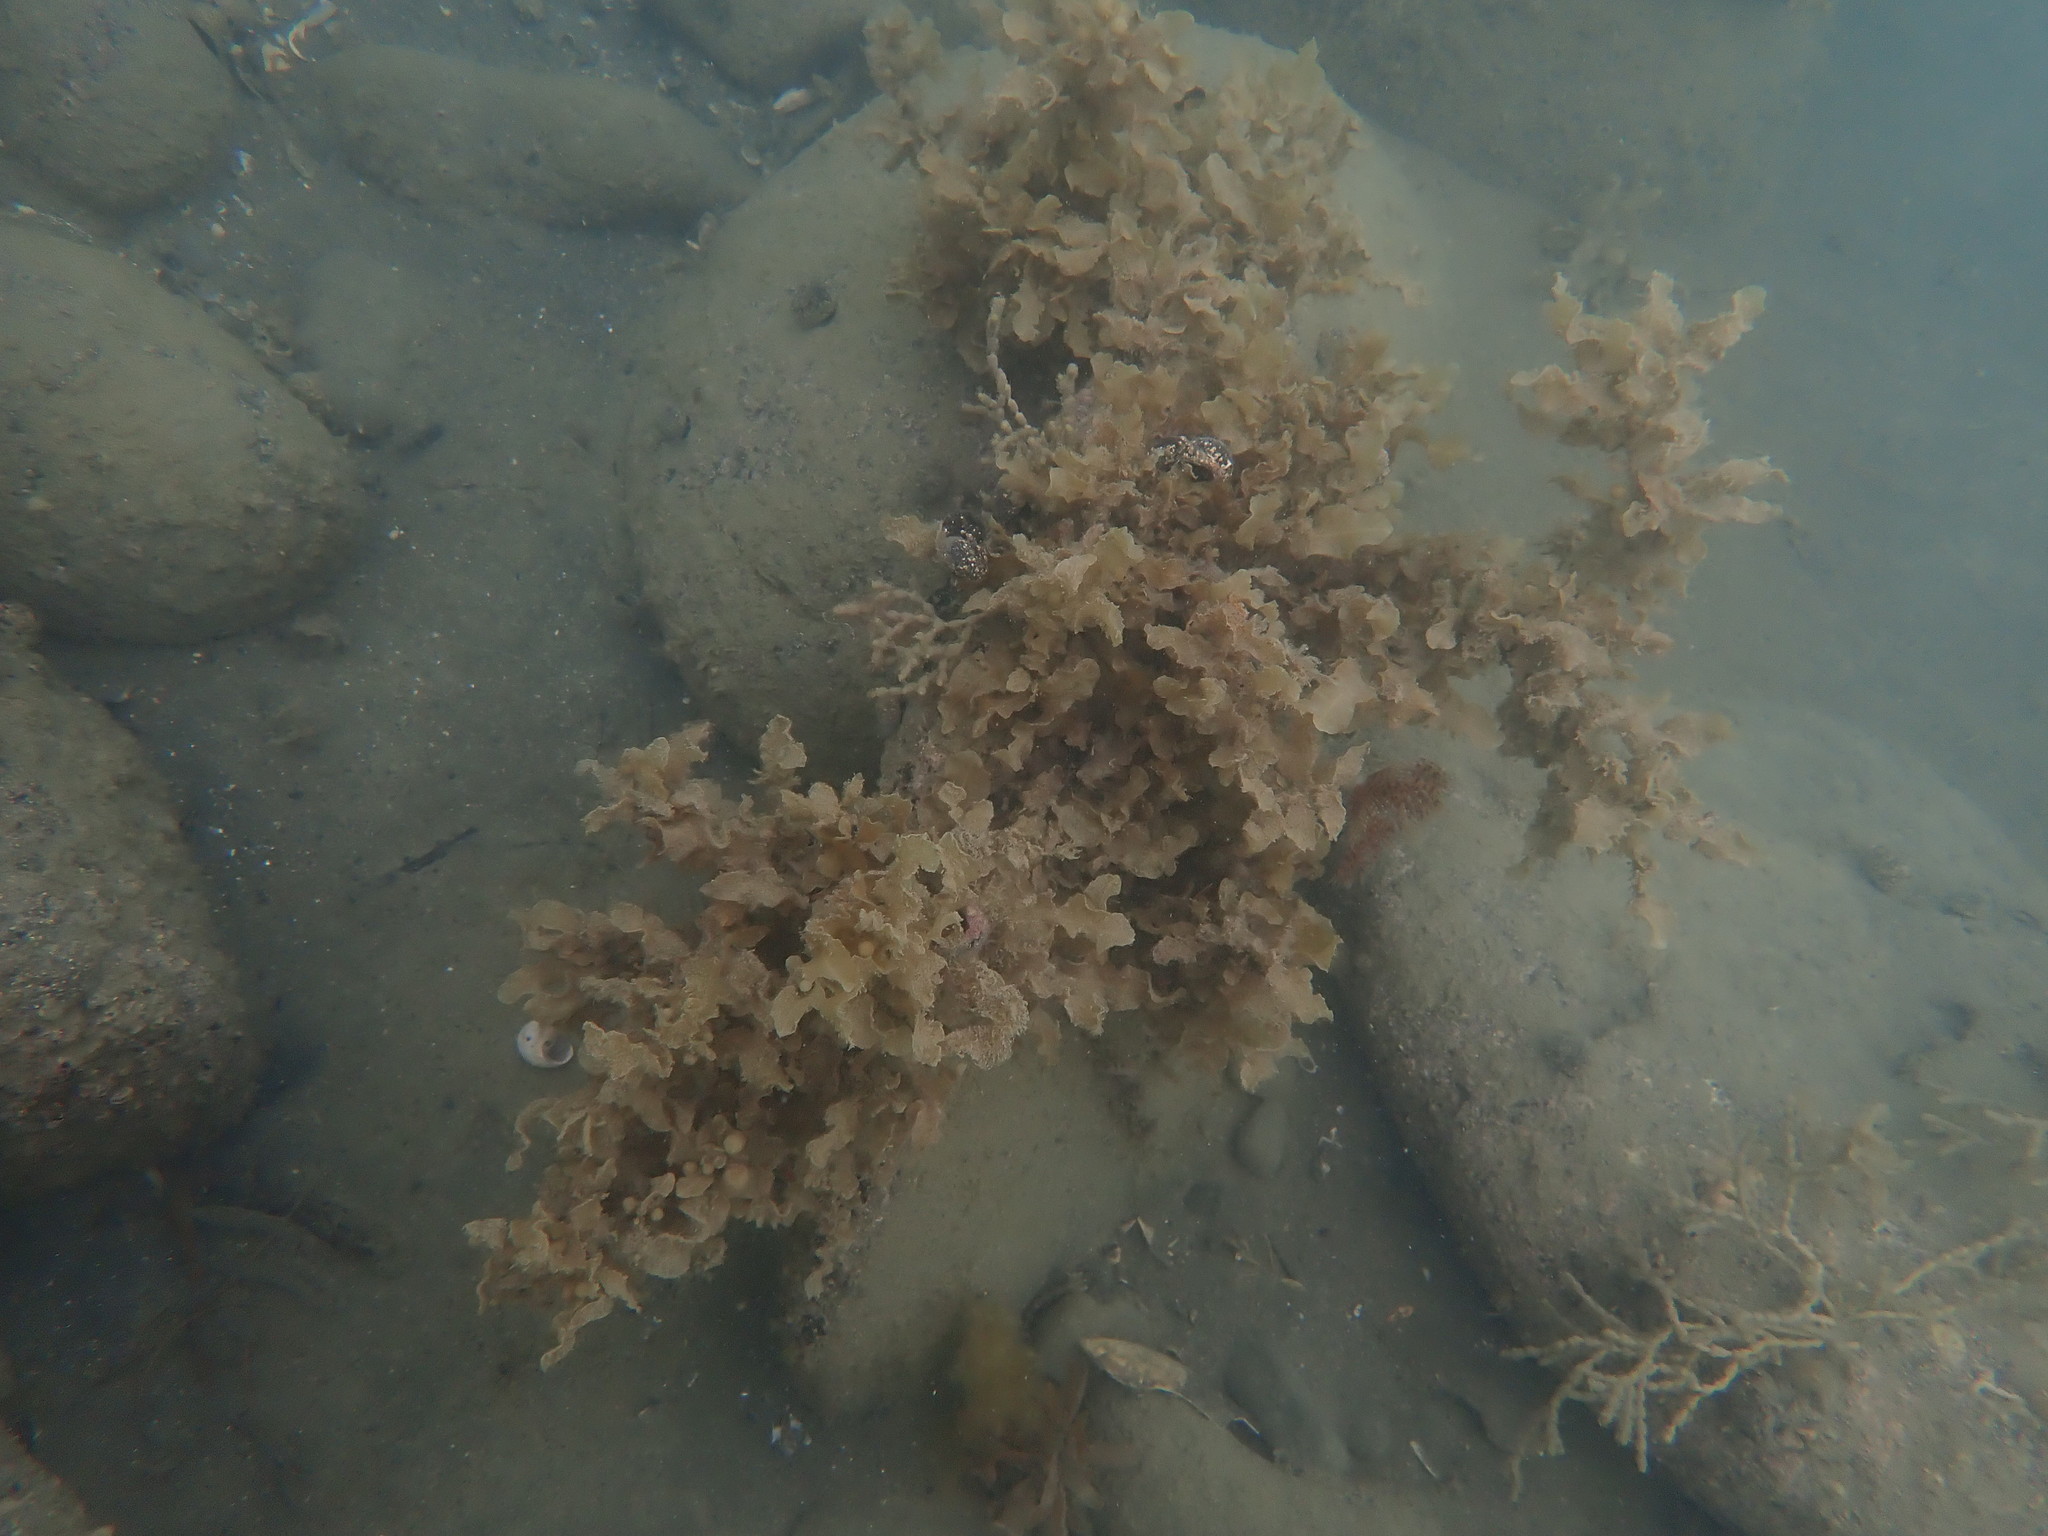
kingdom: Chromista
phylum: Ochrophyta
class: Phaeophyceae
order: Fucales
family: Sargassaceae
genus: Sargassum
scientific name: Sargassum sinclairii
